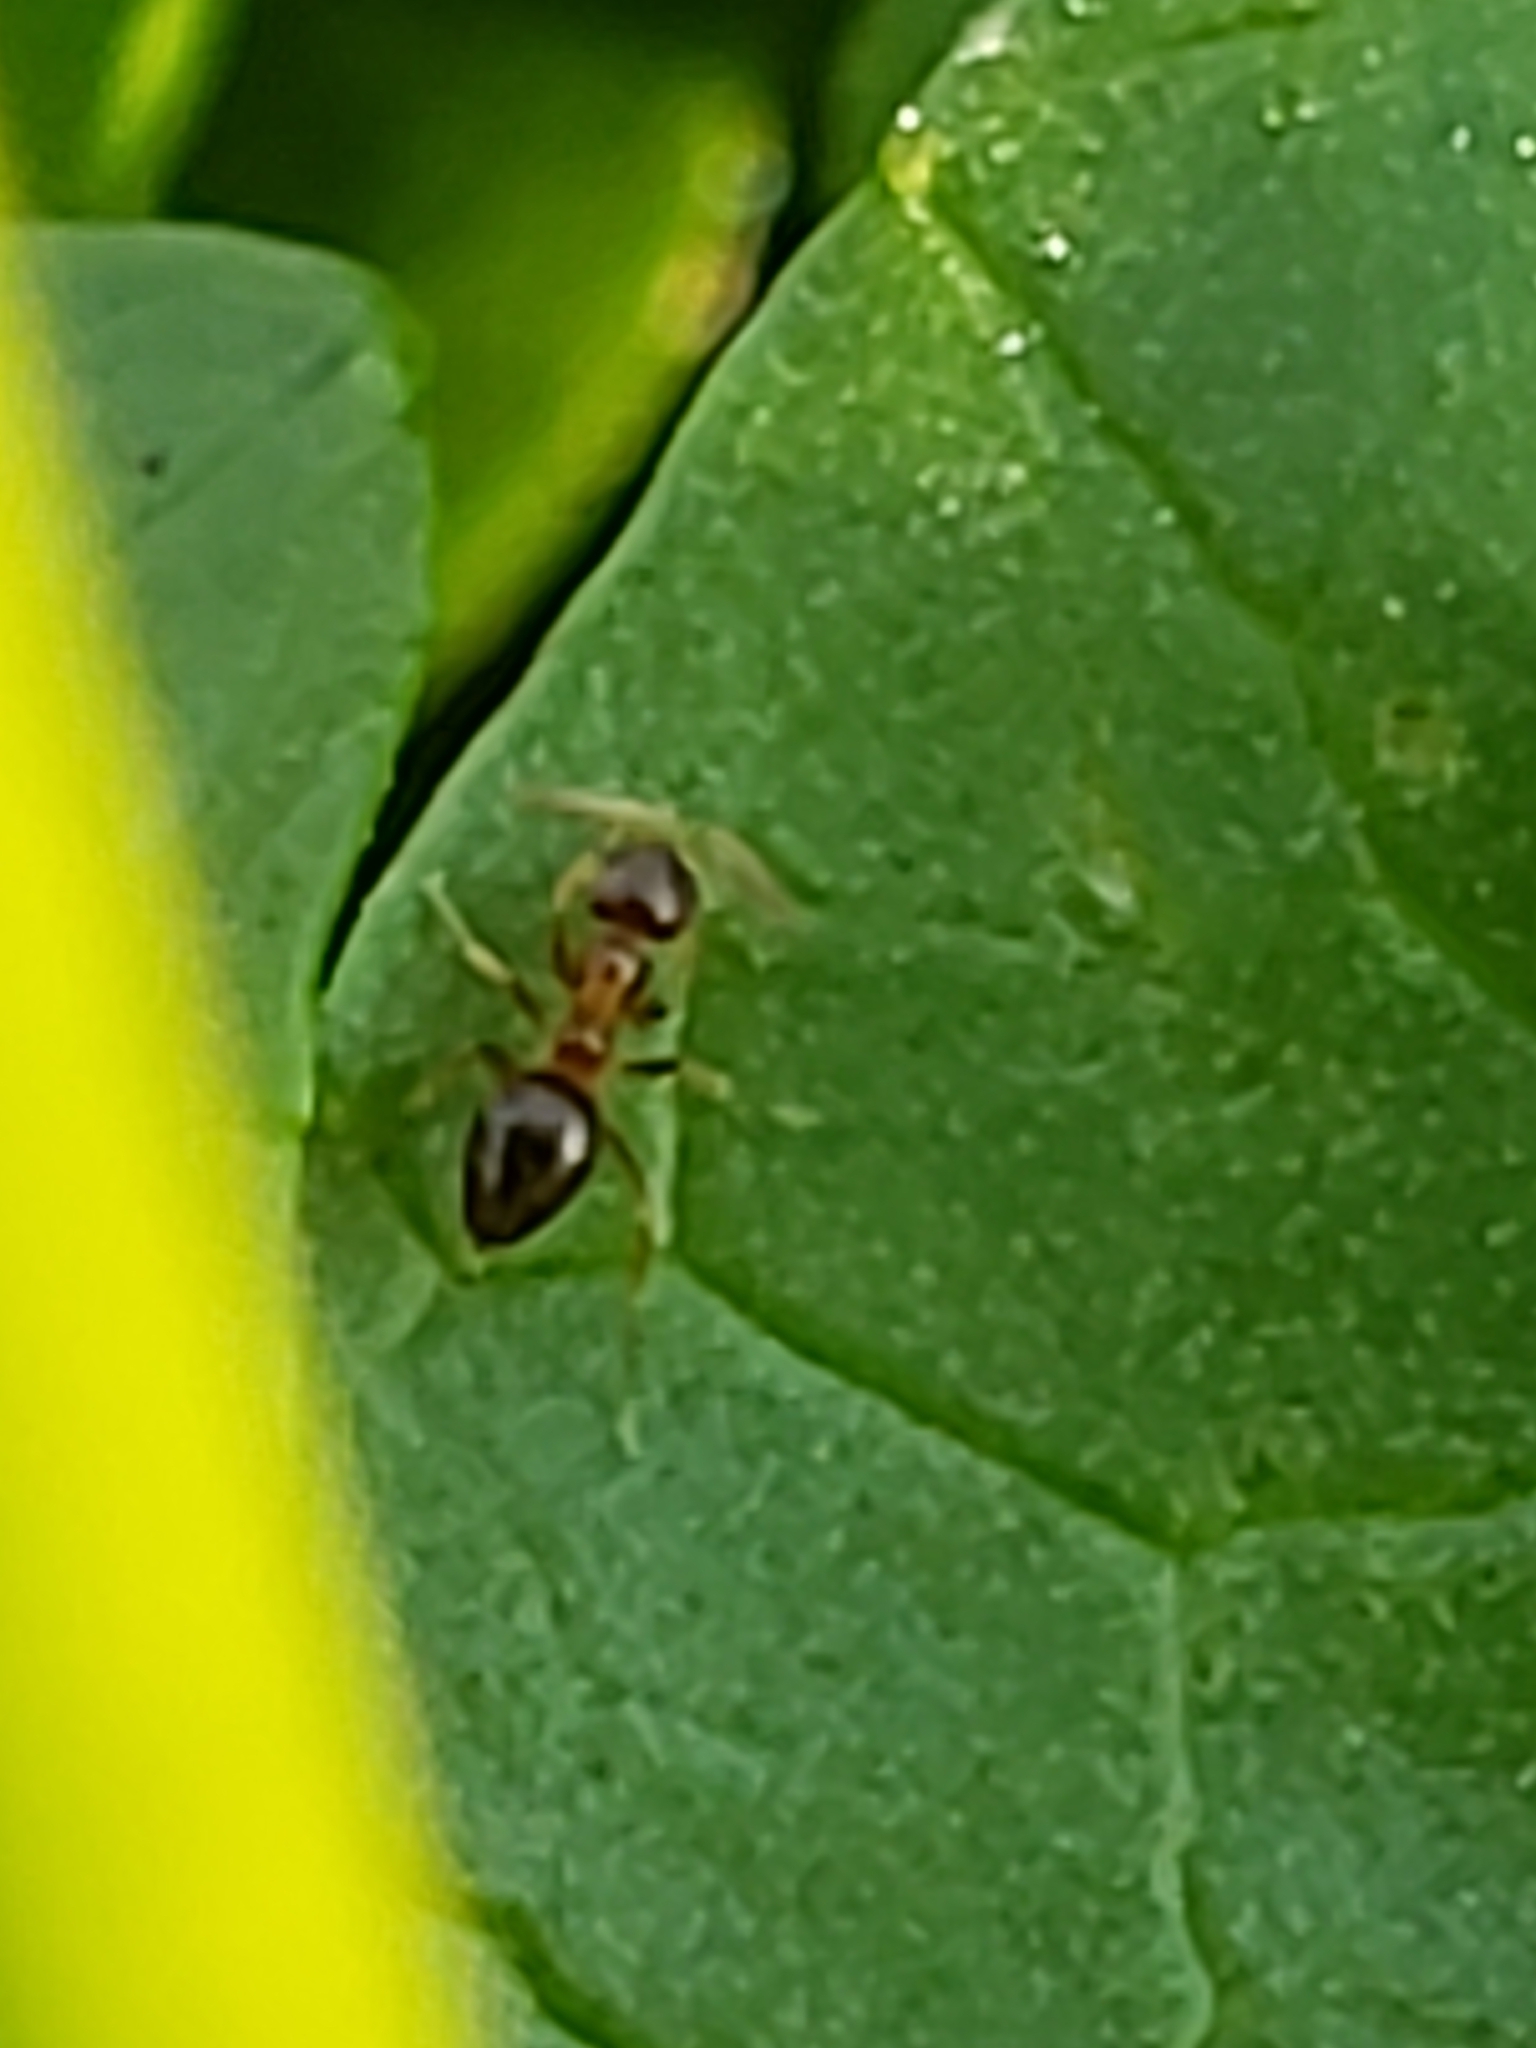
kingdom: Animalia
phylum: Arthropoda
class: Insecta
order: Hymenoptera
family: Formicidae
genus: Paratrechina
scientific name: Paratrechina flavipes
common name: Eastern asian formicine ant
